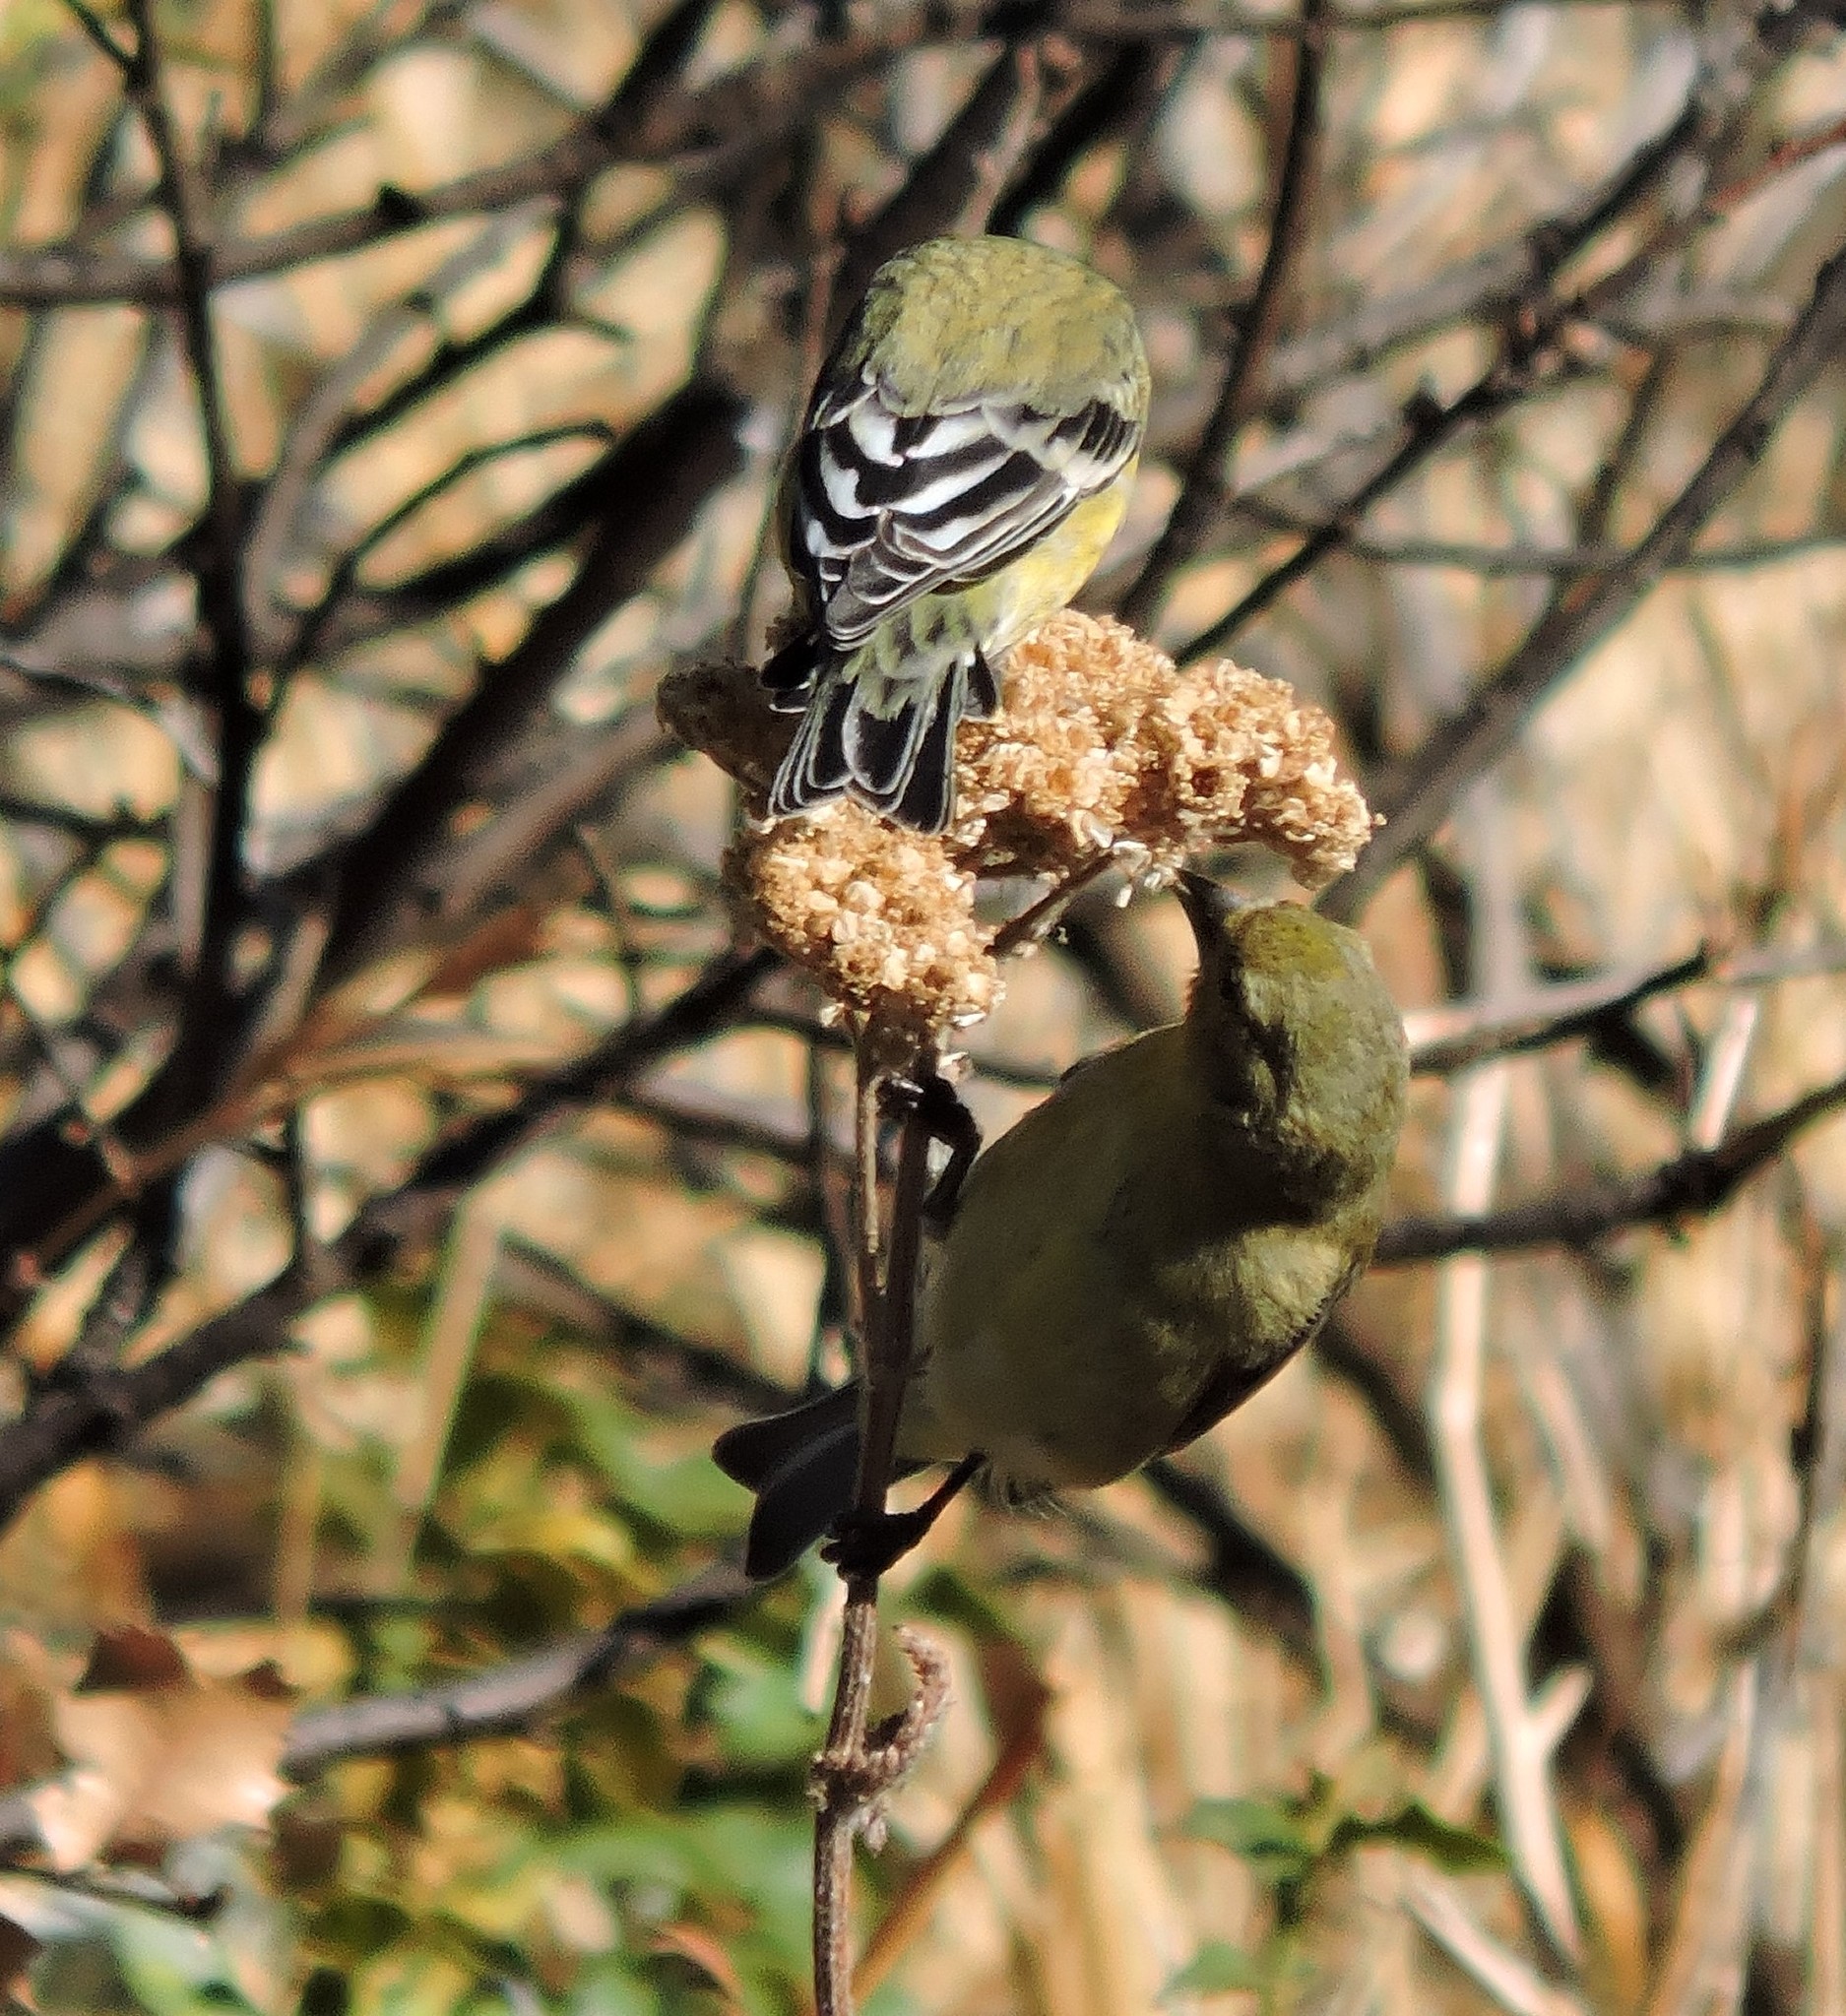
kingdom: Animalia
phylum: Chordata
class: Aves
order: Passeriformes
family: Fringillidae
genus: Spinus
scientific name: Spinus psaltria
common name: Lesser goldfinch
